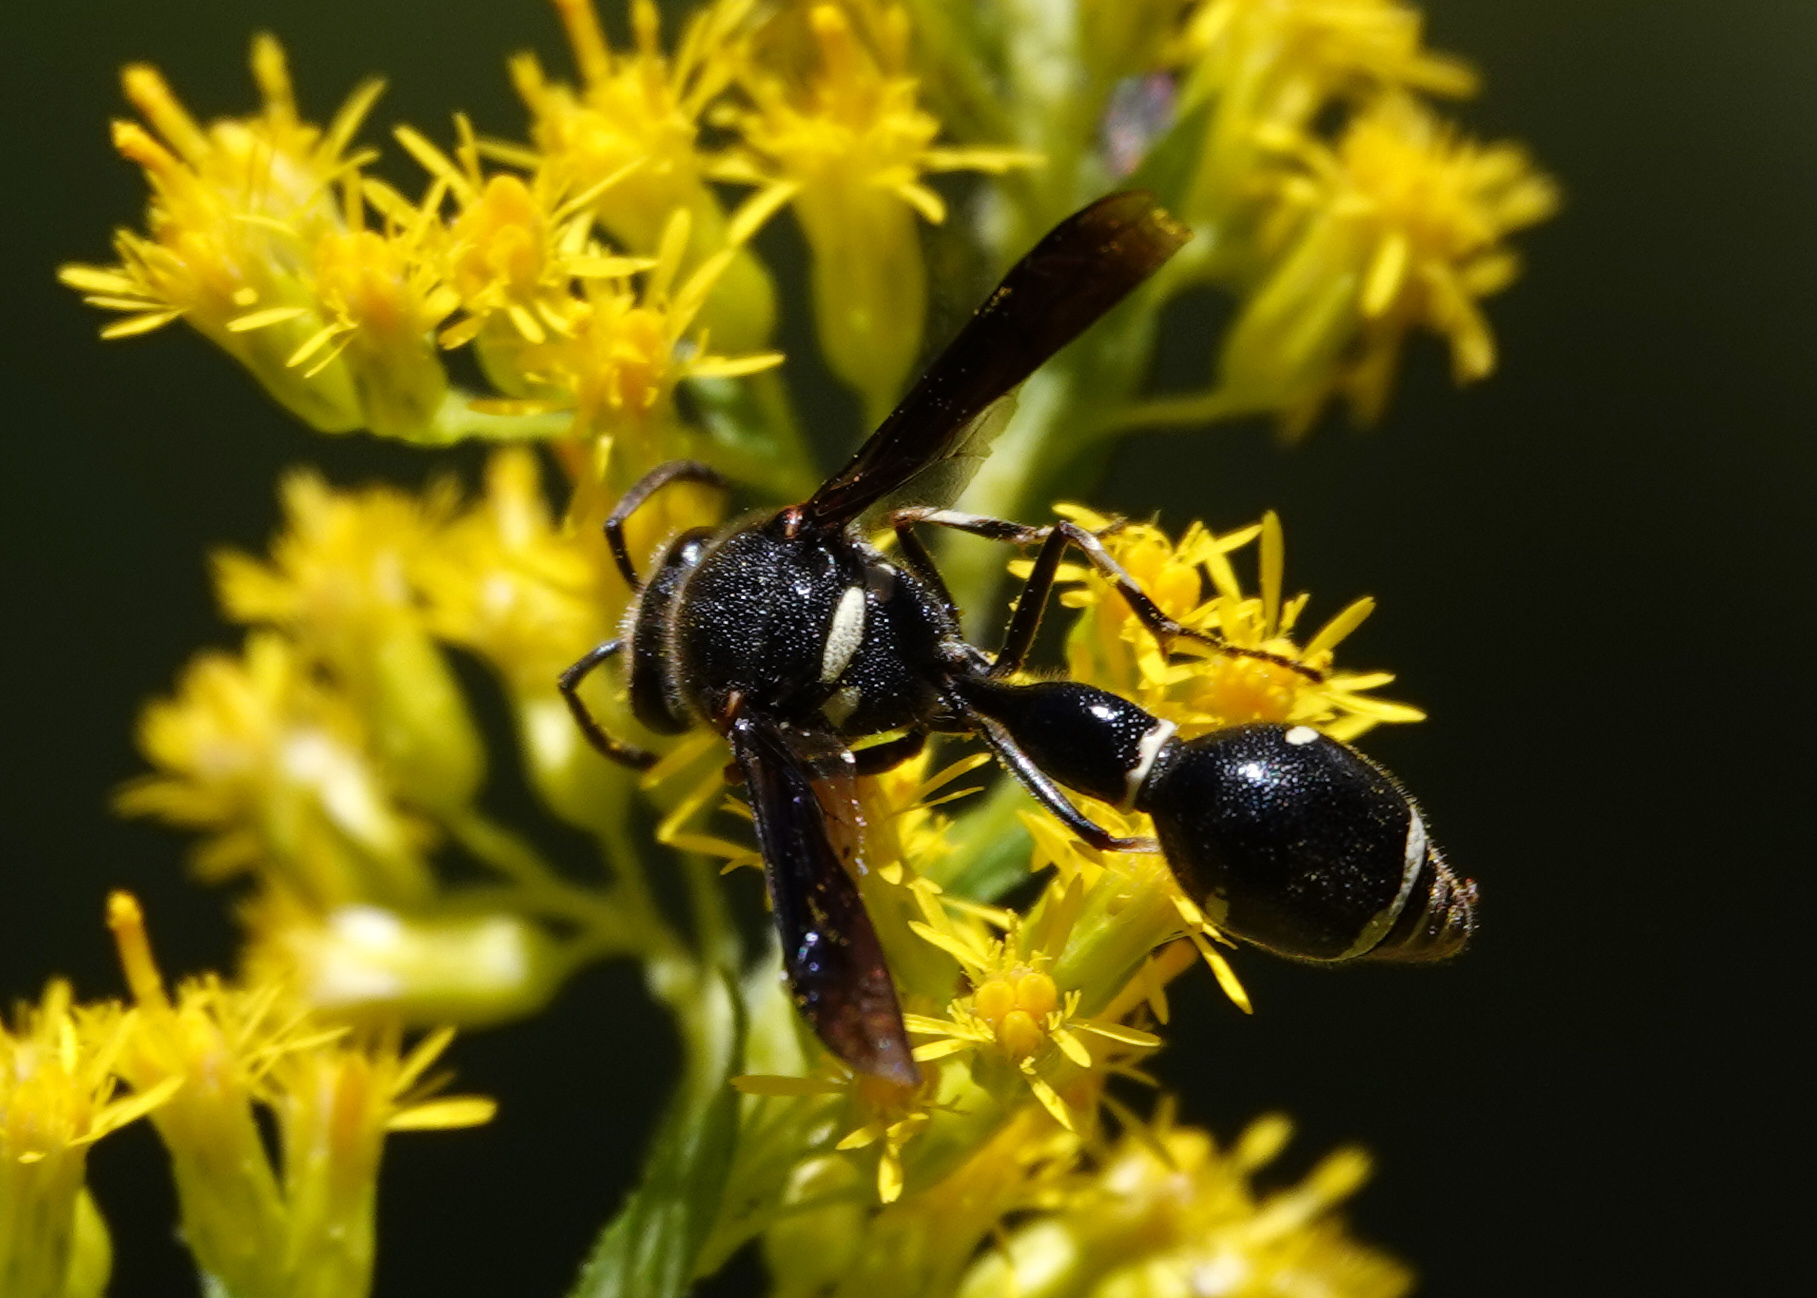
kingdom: Animalia
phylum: Arthropoda
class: Insecta
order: Hymenoptera
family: Vespidae
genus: Eumenes
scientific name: Eumenes fraternus
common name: Fraternal potter wasp
